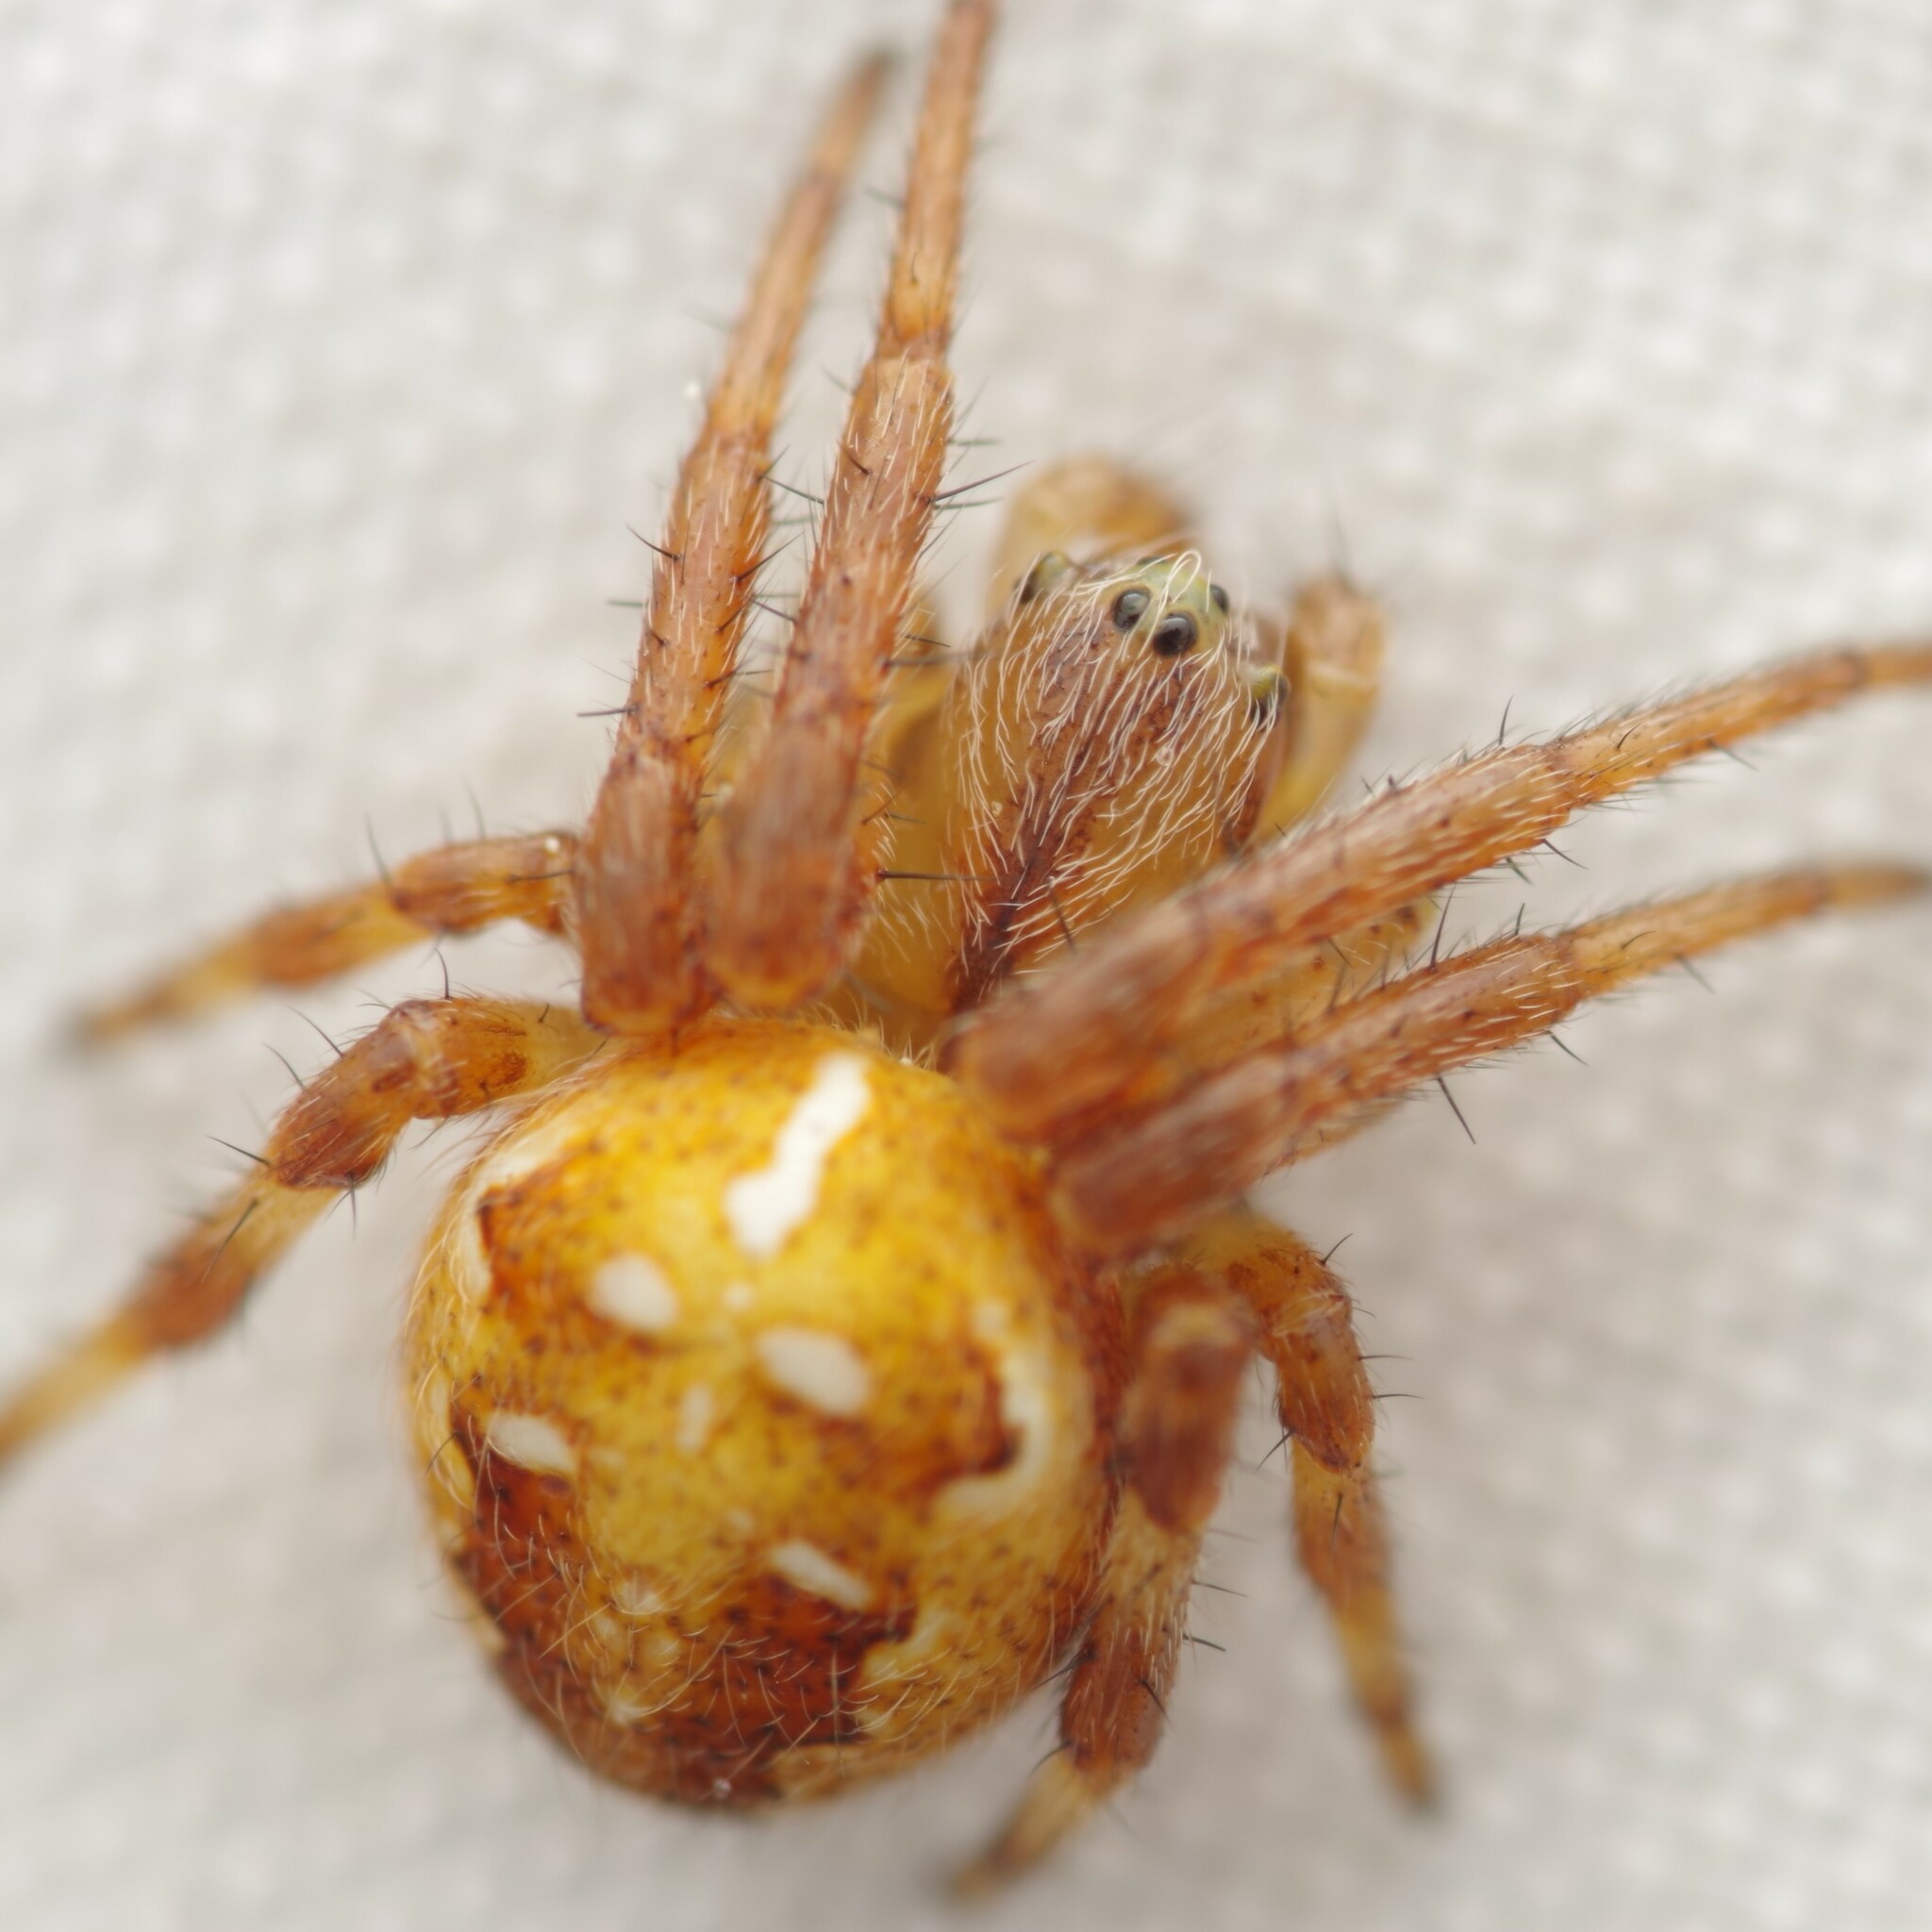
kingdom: Animalia
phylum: Arthropoda
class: Arachnida
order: Araneae
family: Araneidae
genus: Araneus
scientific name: Araneus quadratus
